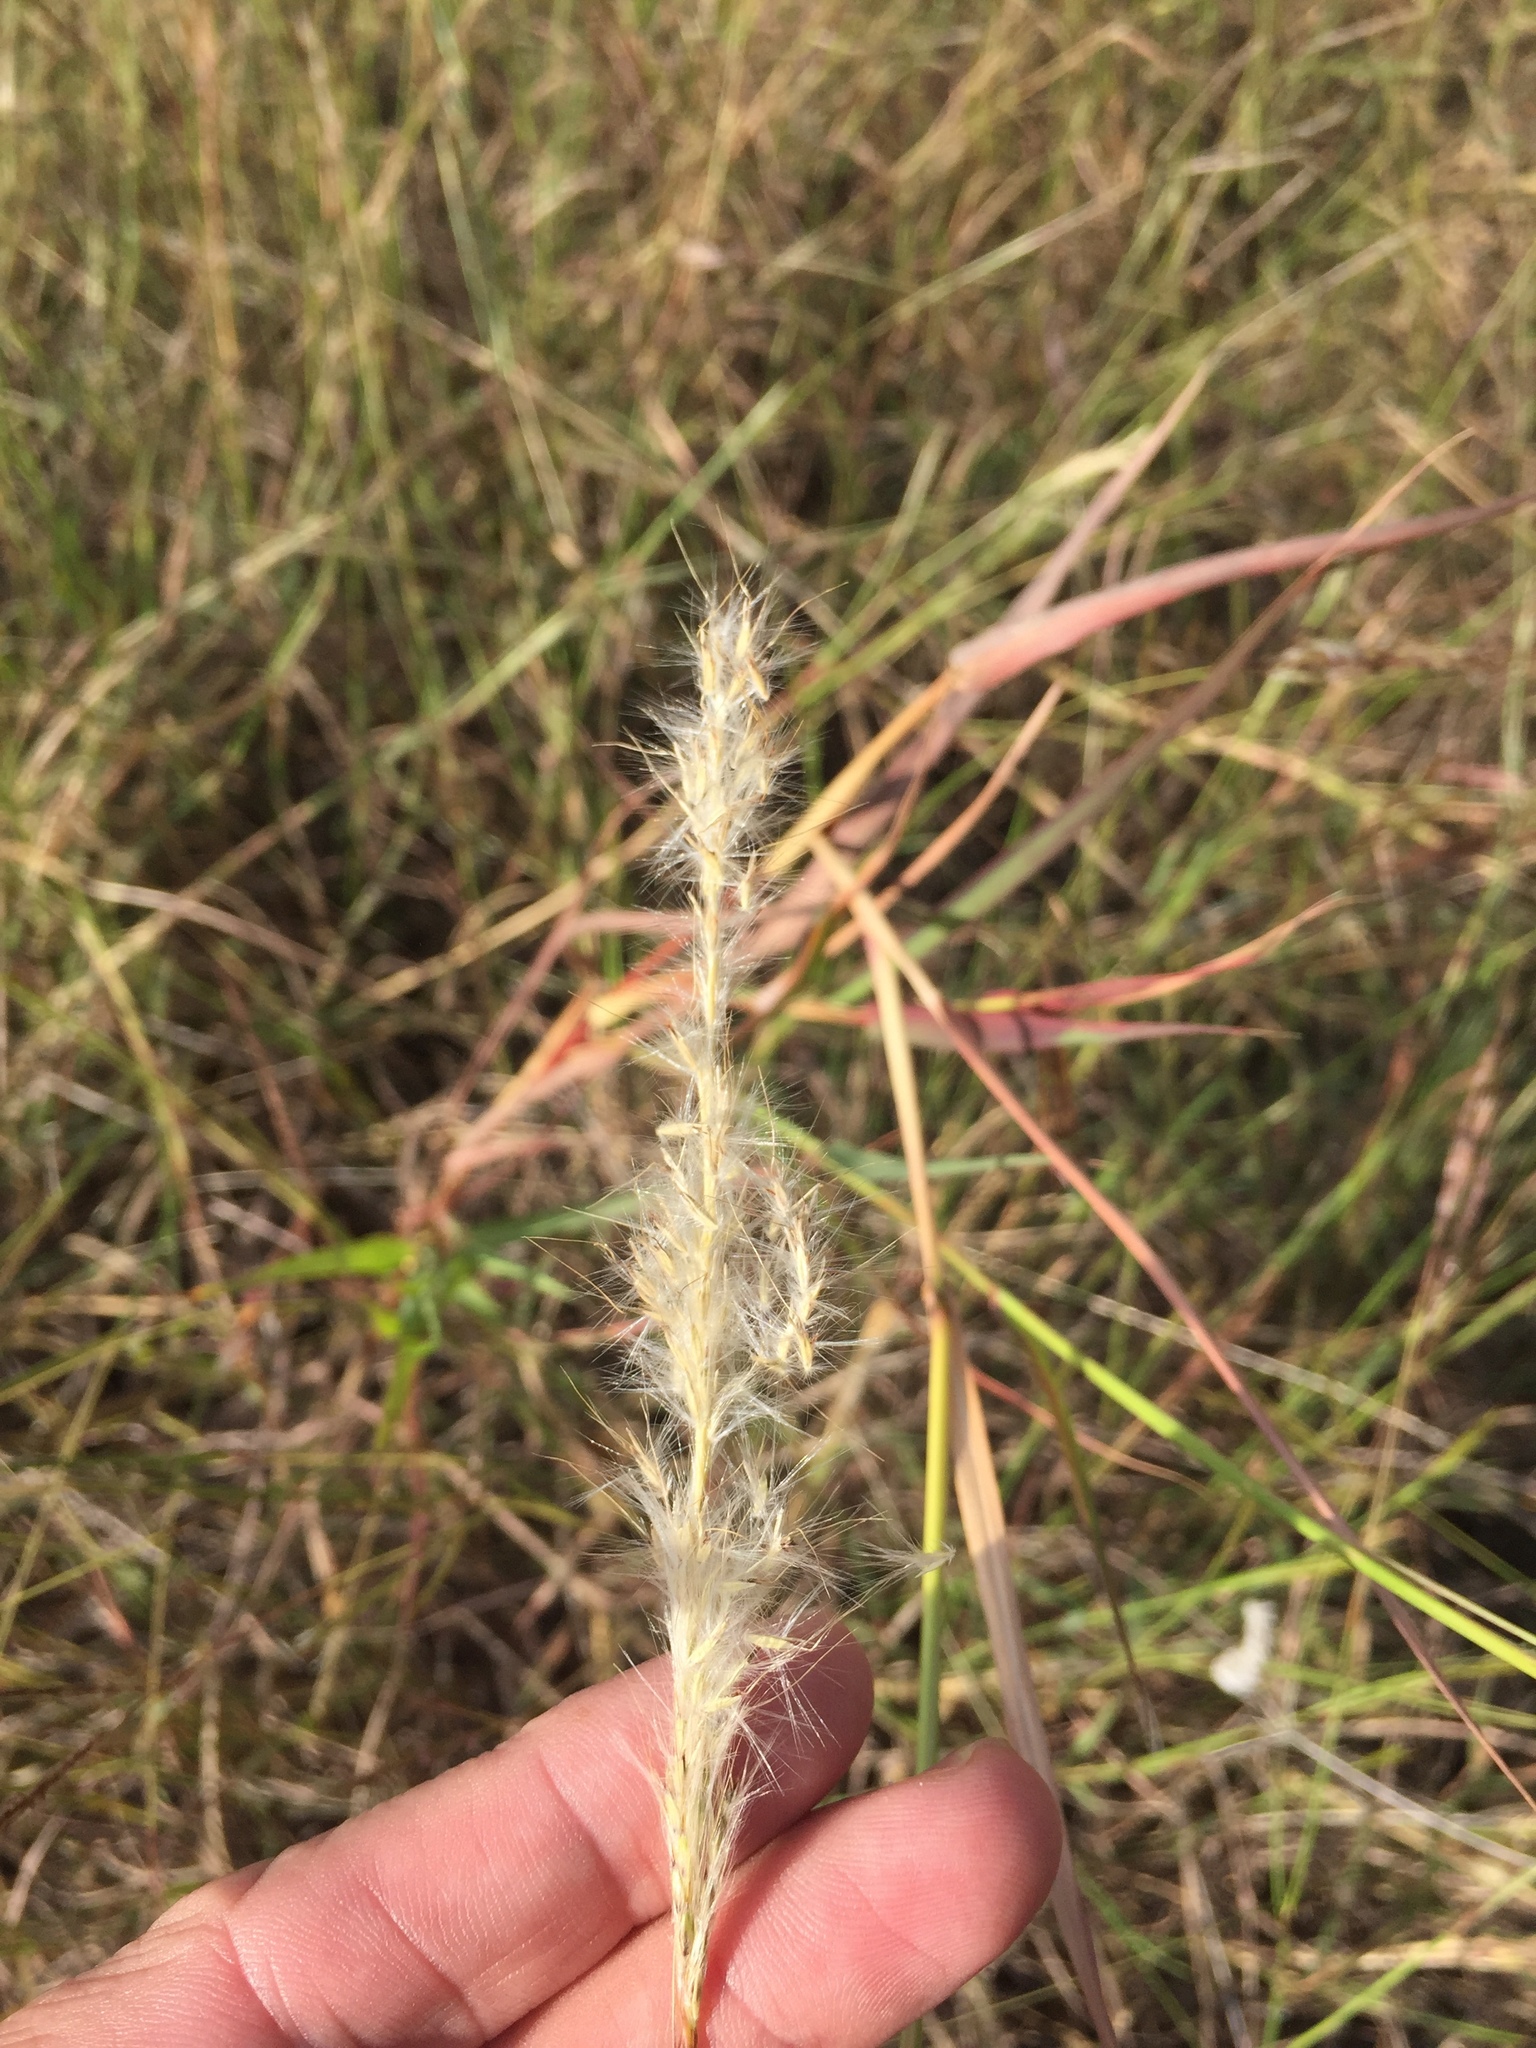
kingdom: Plantae
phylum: Tracheophyta
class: Liliopsida
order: Poales
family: Poaceae
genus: Bothriochloa
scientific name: Bothriochloa torreyana
